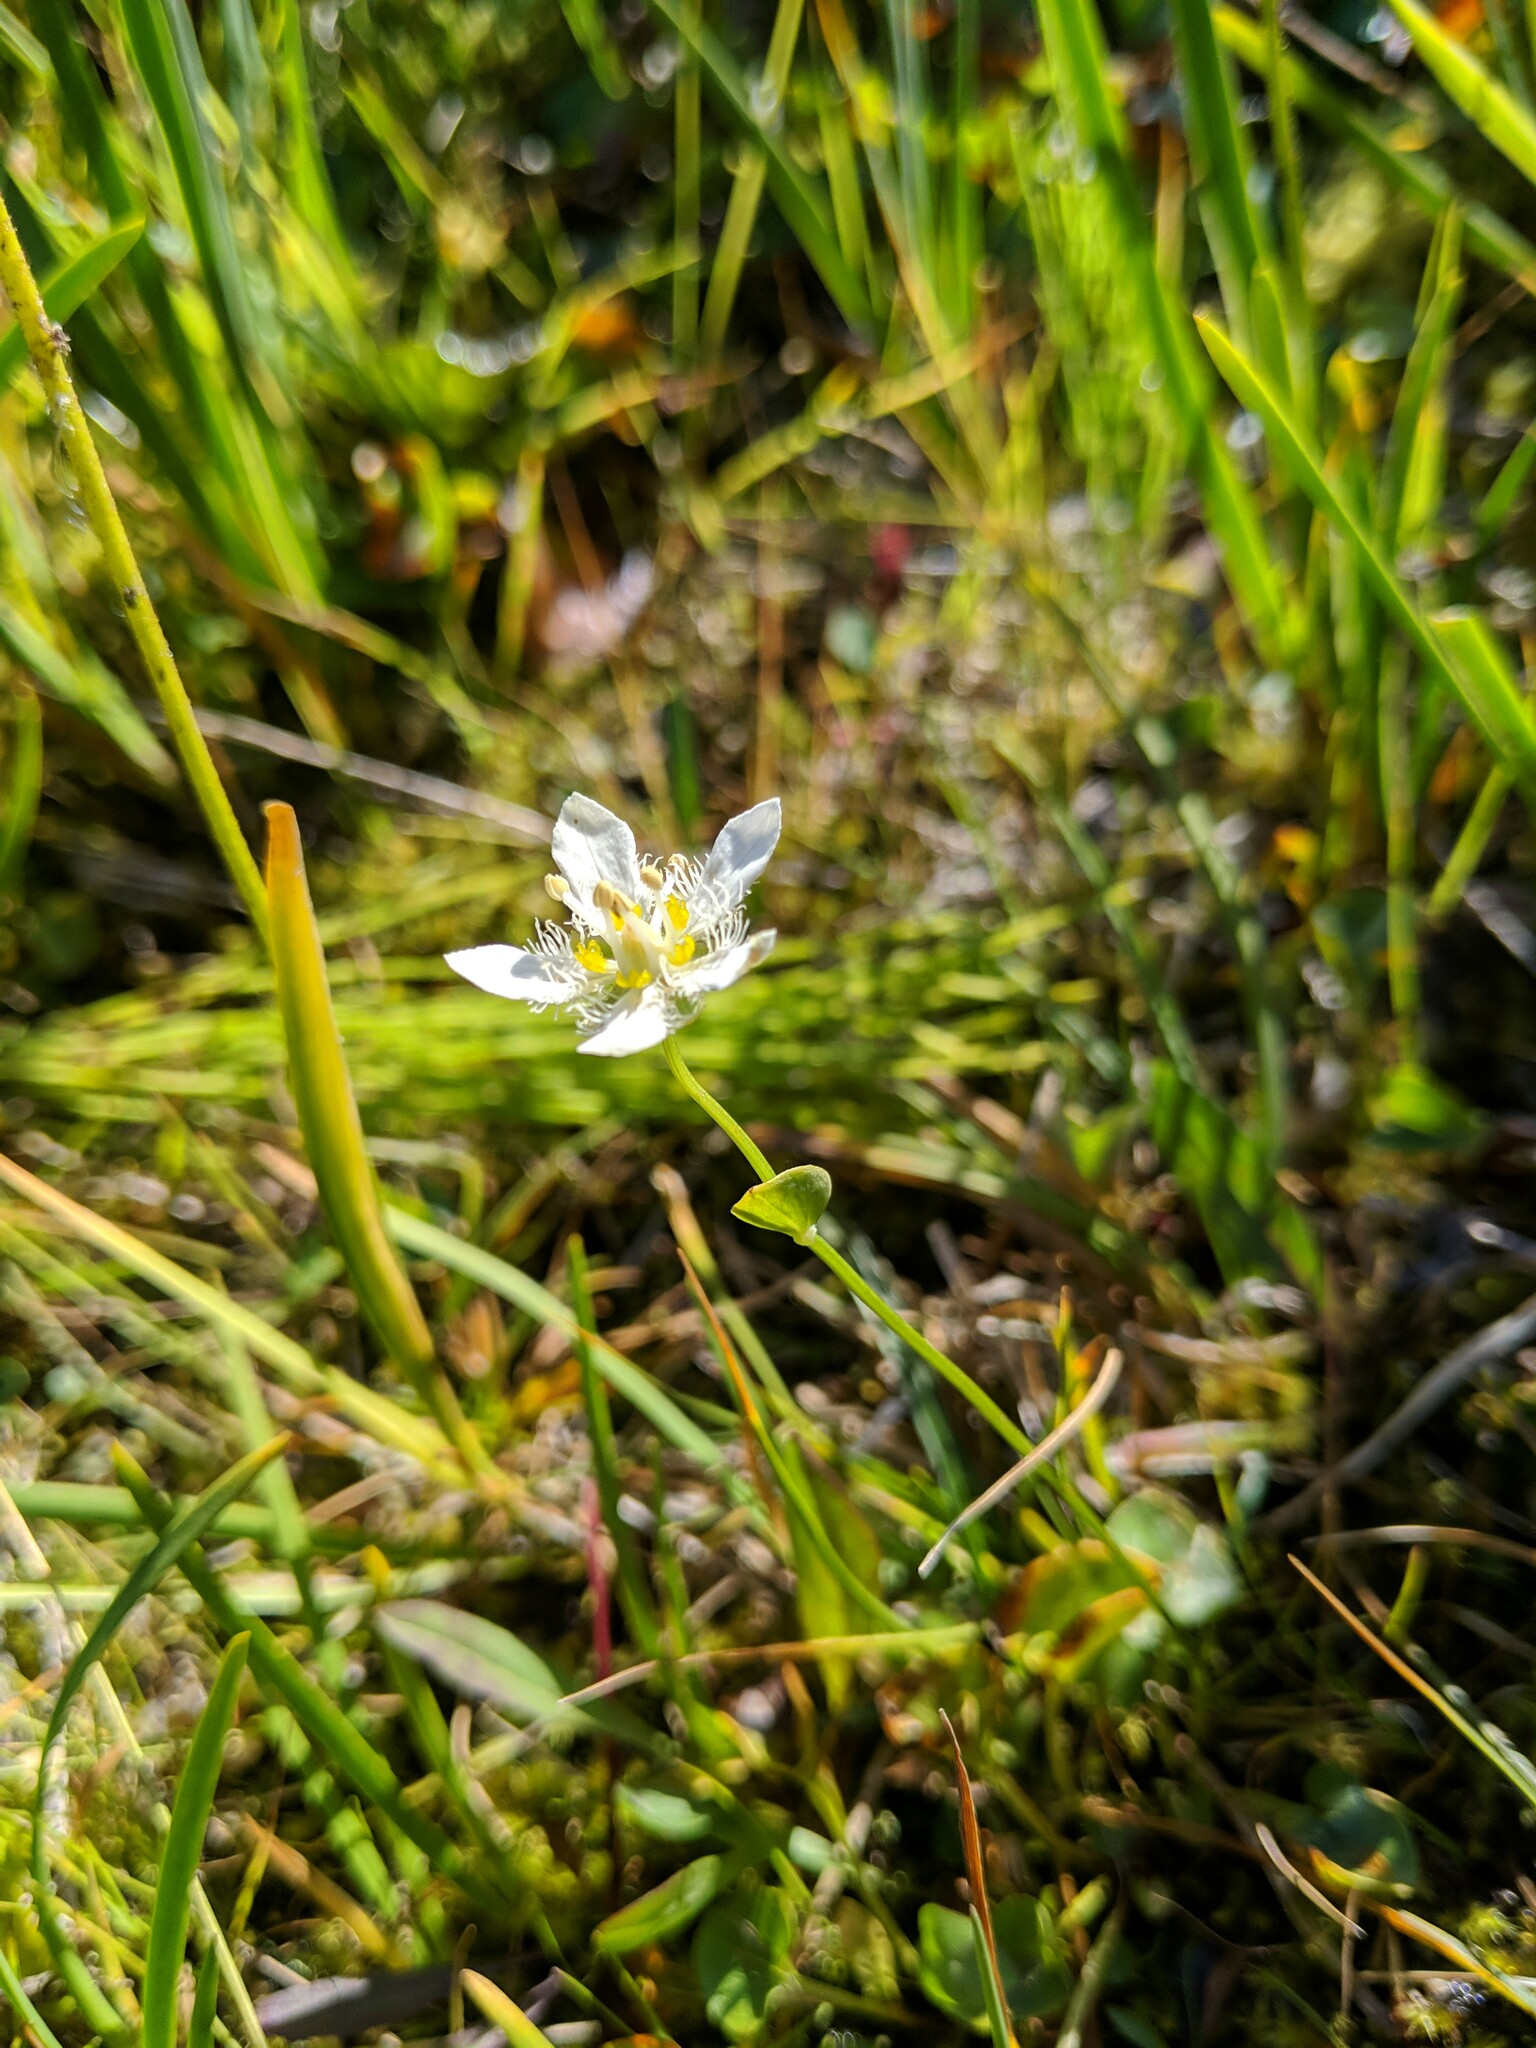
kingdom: Plantae
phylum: Tracheophyta
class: Magnoliopsida
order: Celastrales
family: Parnassiaceae
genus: Parnassia
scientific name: Parnassia fimbriata
